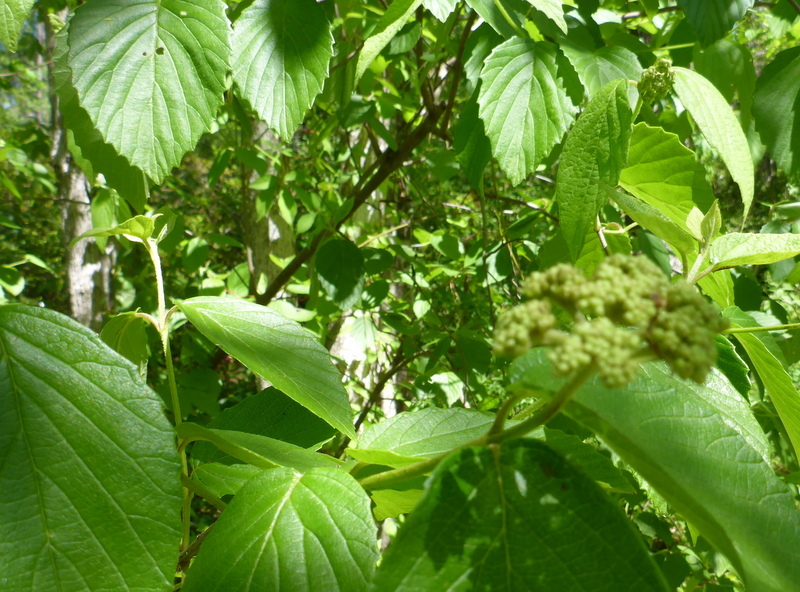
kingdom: Plantae
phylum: Tracheophyta
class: Magnoliopsida
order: Dipsacales
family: Viburnaceae
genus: Viburnum
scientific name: Viburnum scabrellum
